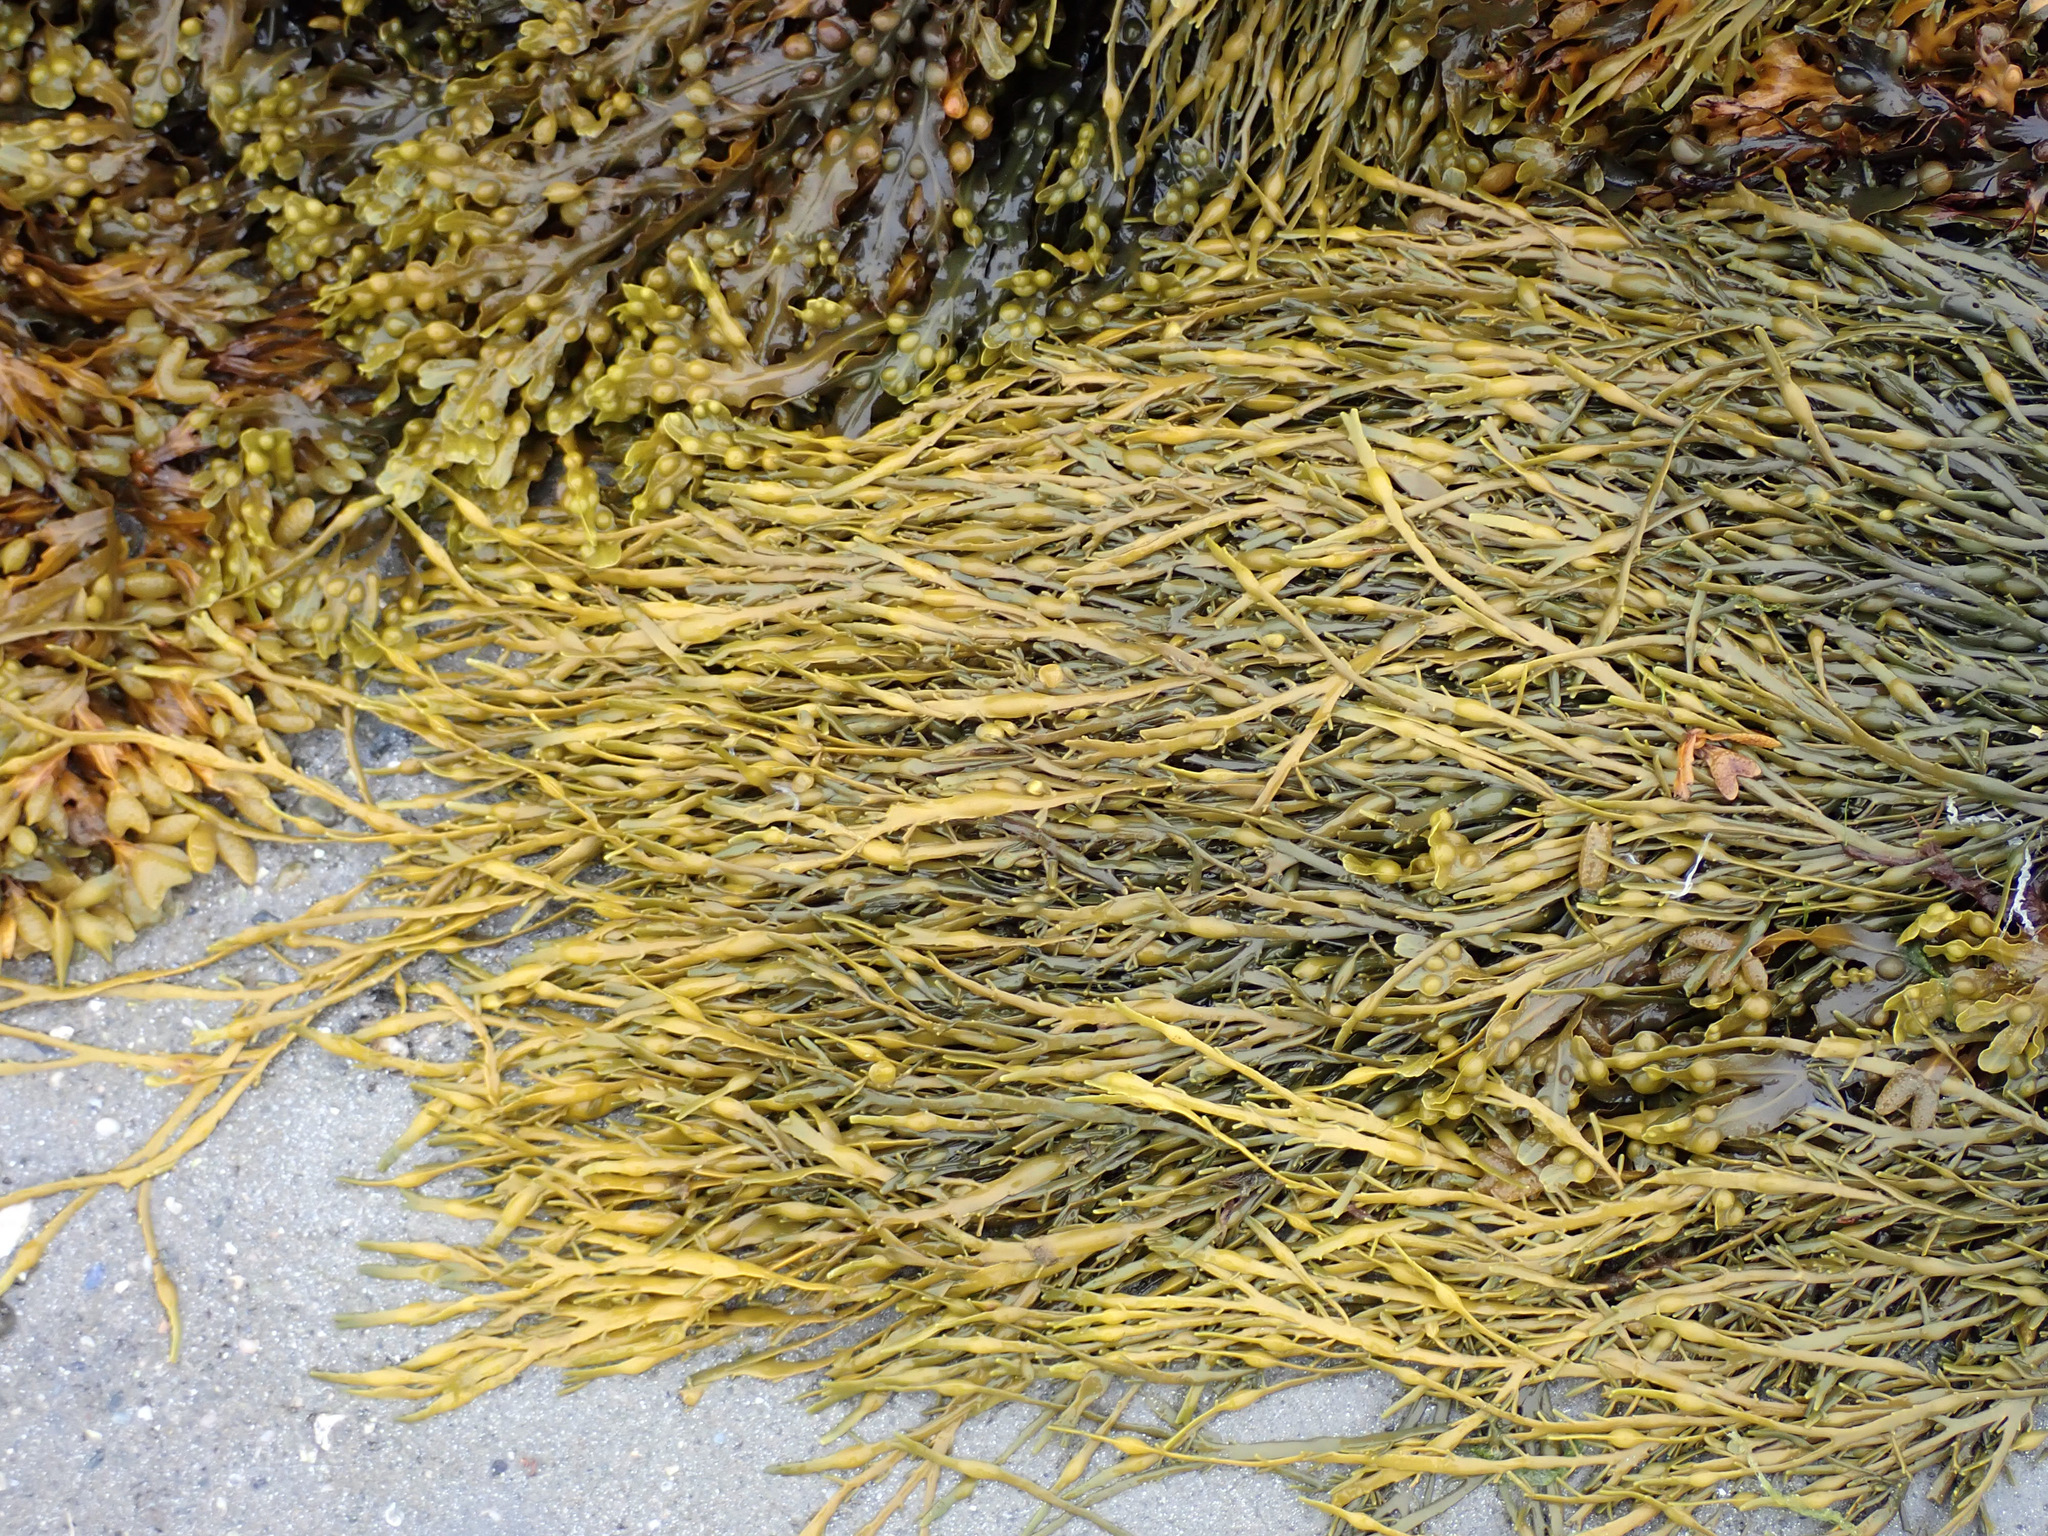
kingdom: Chromista
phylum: Ochrophyta
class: Phaeophyceae
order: Fucales
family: Fucaceae
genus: Ascophyllum
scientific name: Ascophyllum nodosum
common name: Knotted wrack
